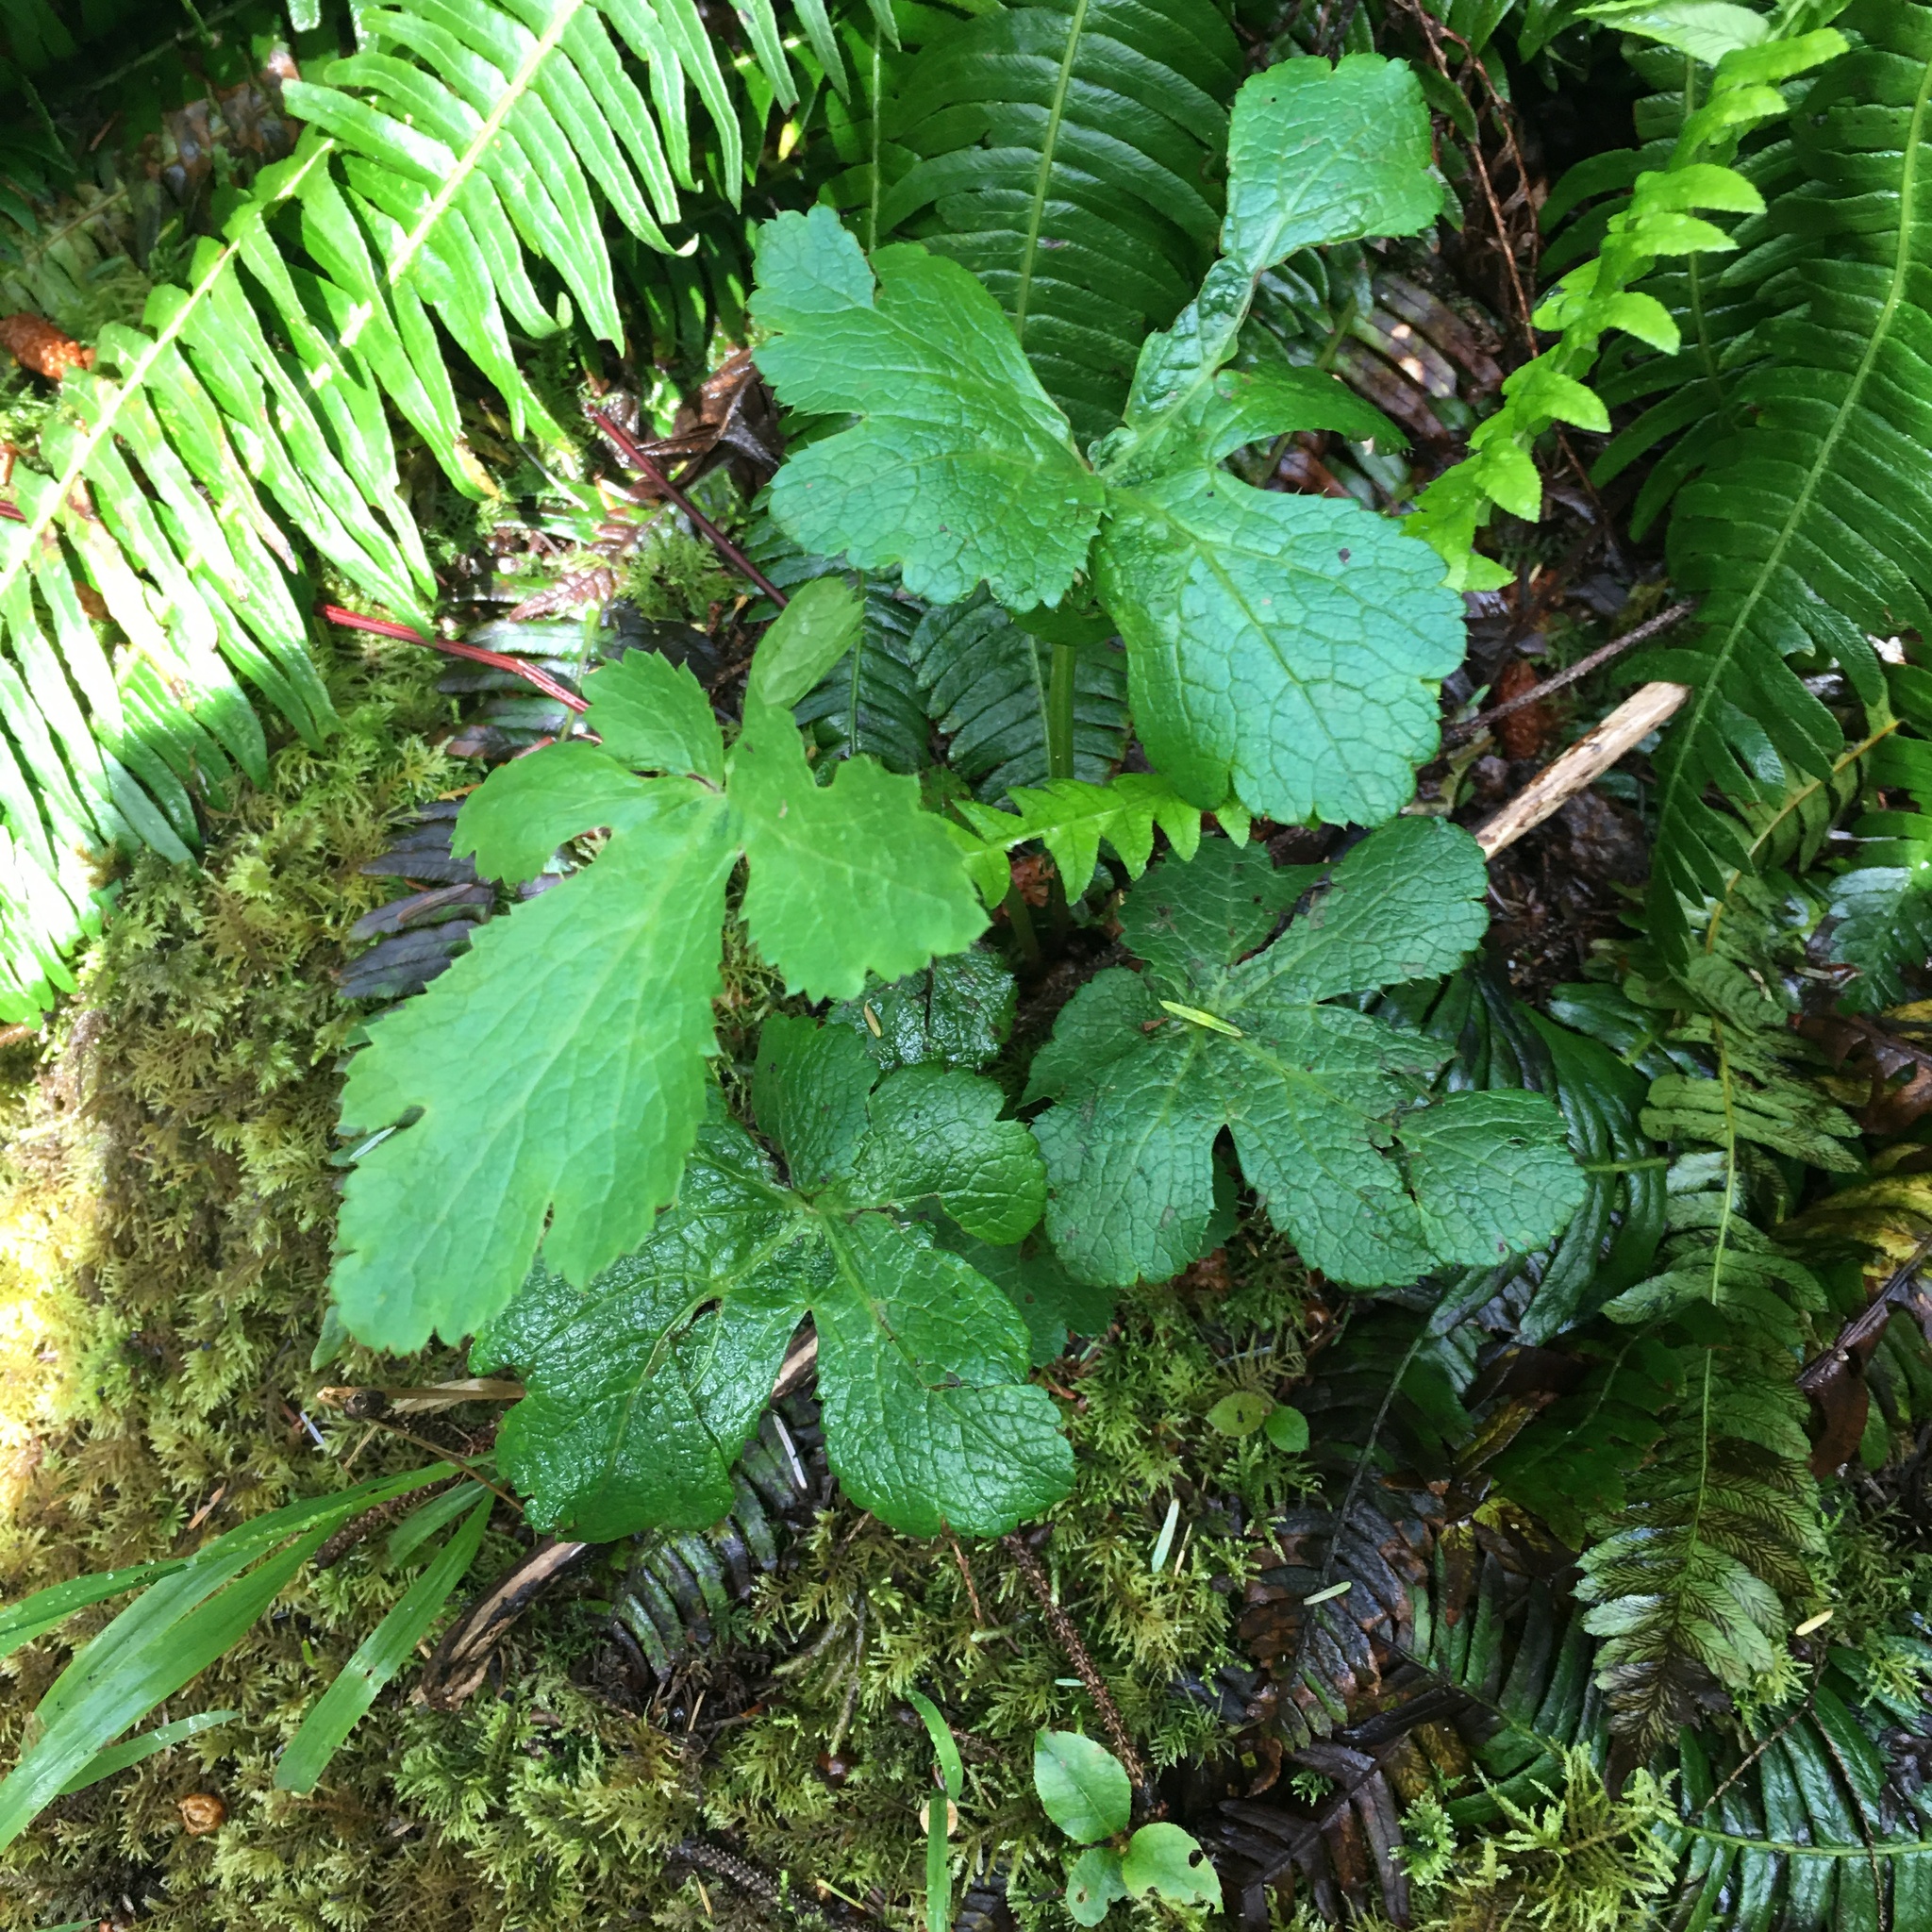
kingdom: Plantae
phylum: Tracheophyta
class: Magnoliopsida
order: Apiales
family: Apiaceae
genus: Sanicula
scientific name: Sanicula crassicaulis
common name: Western snakeroot
